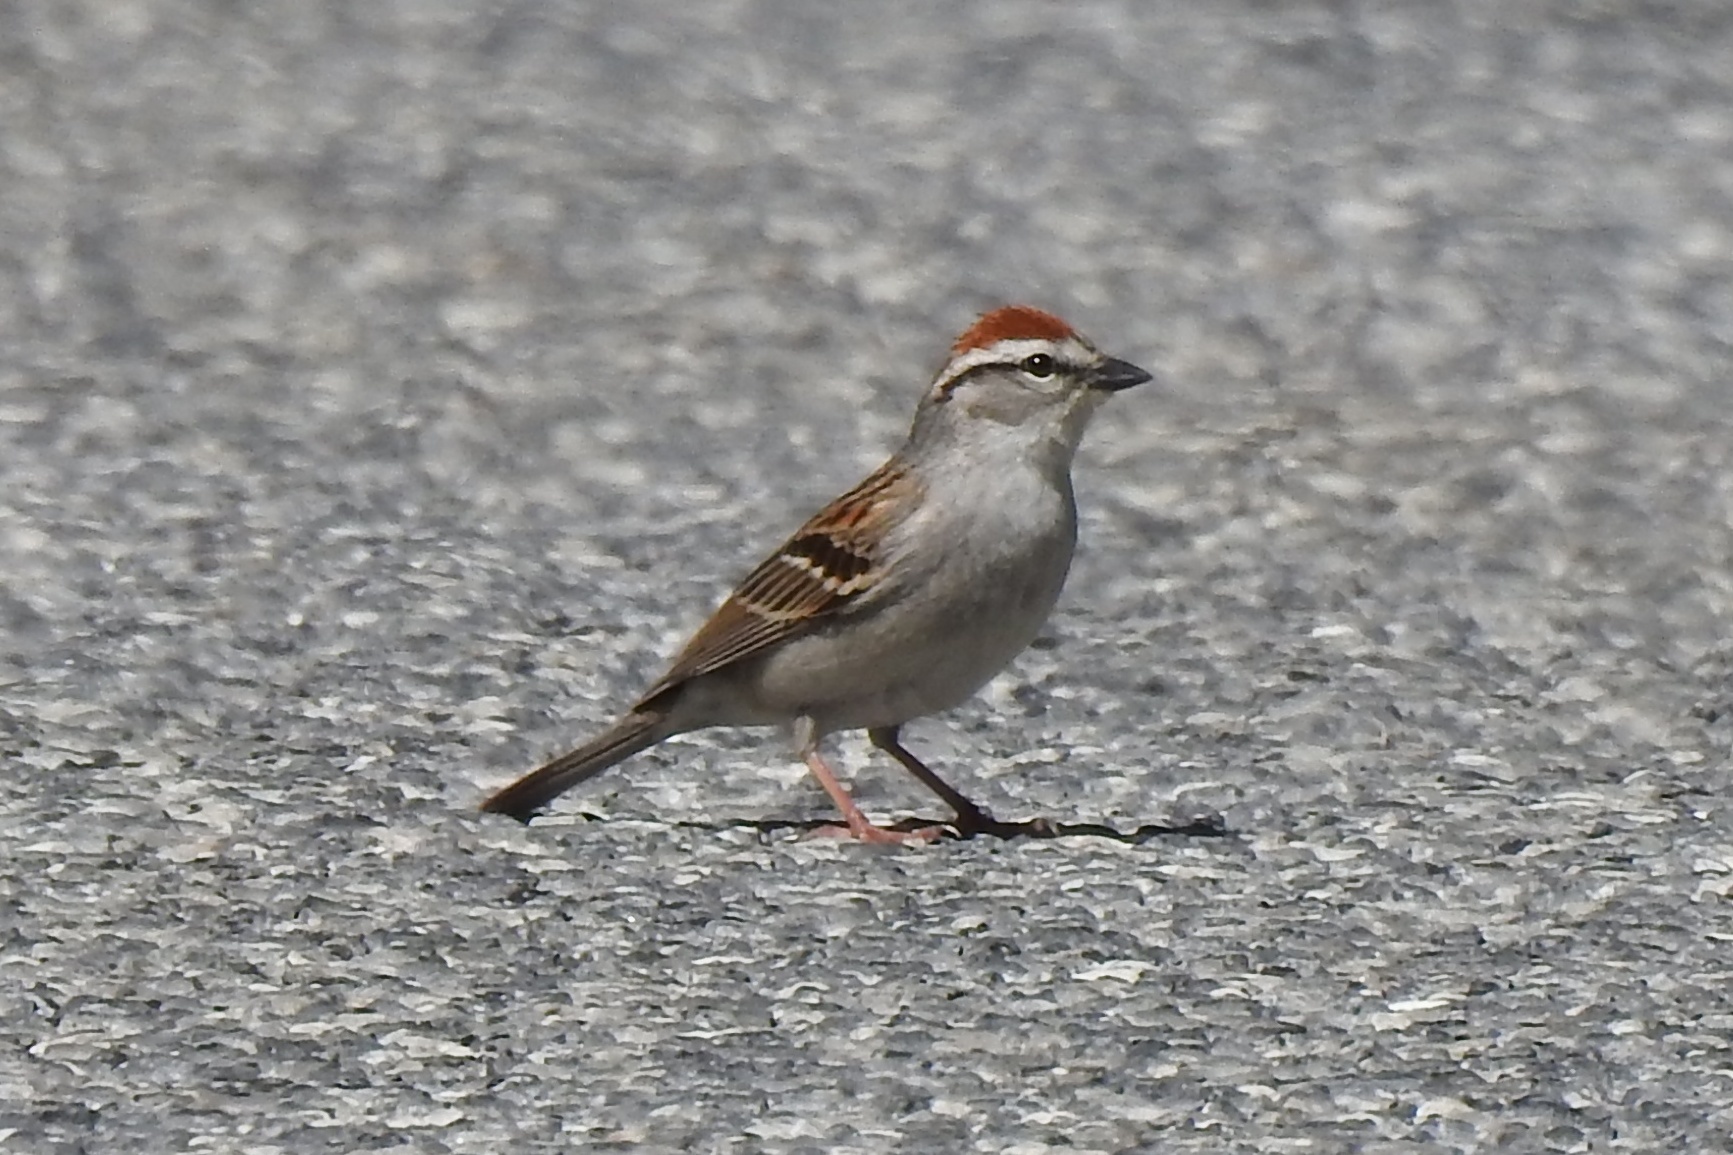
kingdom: Animalia
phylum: Chordata
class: Aves
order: Passeriformes
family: Passerellidae
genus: Spizella
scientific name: Spizella passerina
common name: Chipping sparrow
